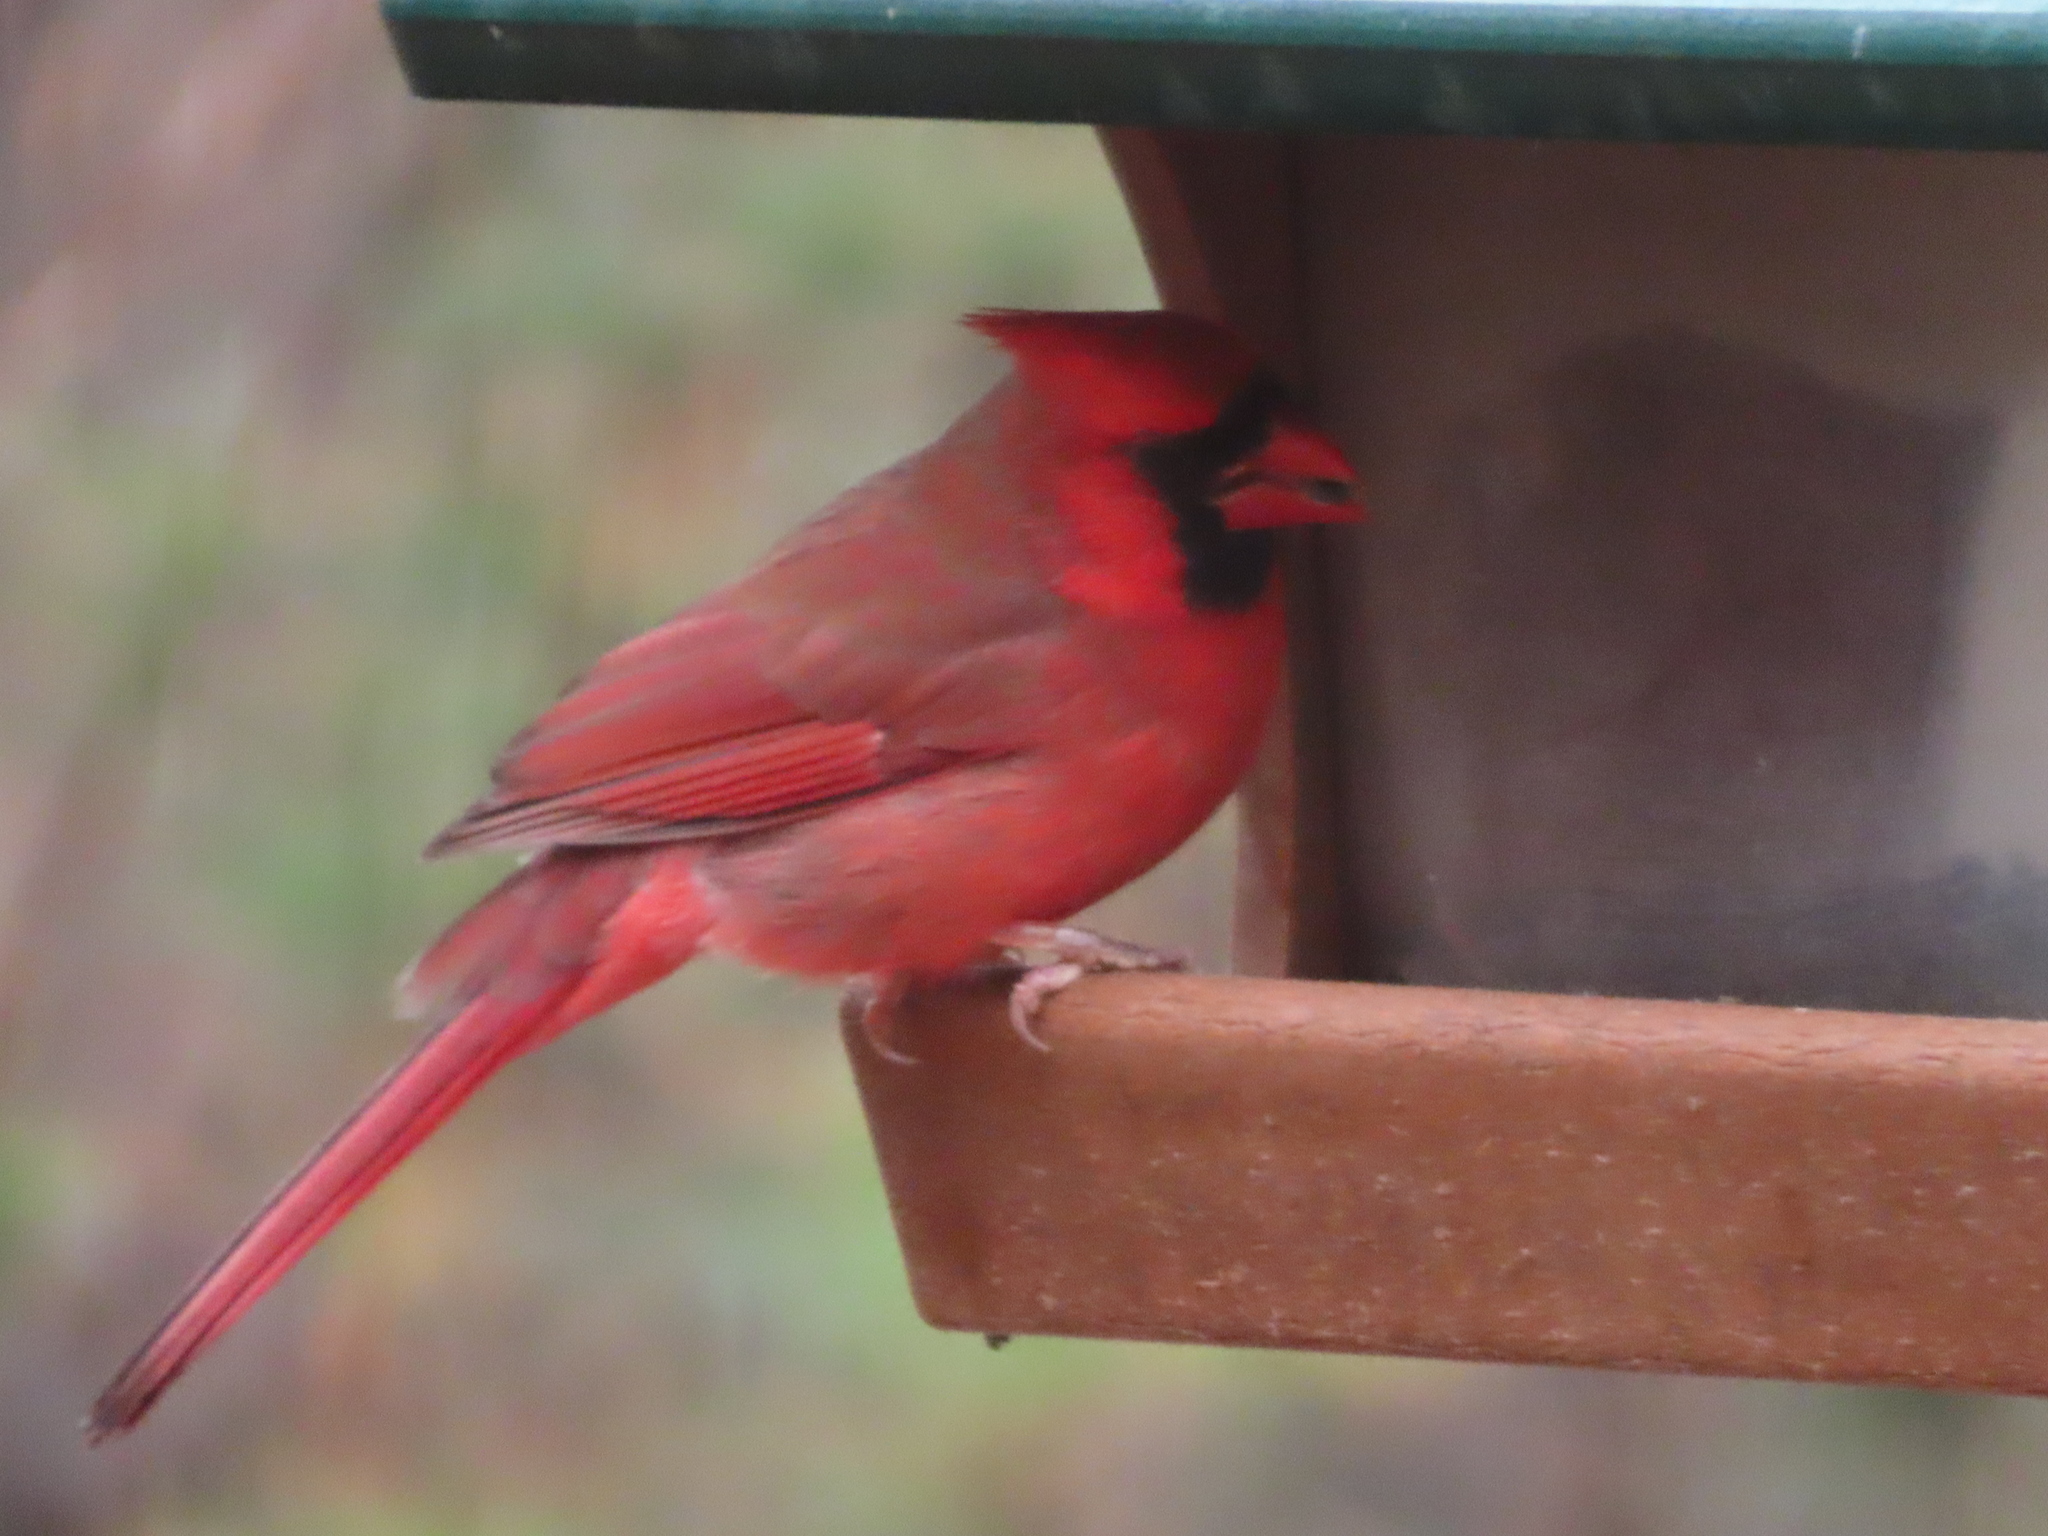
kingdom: Animalia
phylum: Chordata
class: Aves
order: Passeriformes
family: Cardinalidae
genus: Cardinalis
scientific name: Cardinalis cardinalis
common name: Northern cardinal
